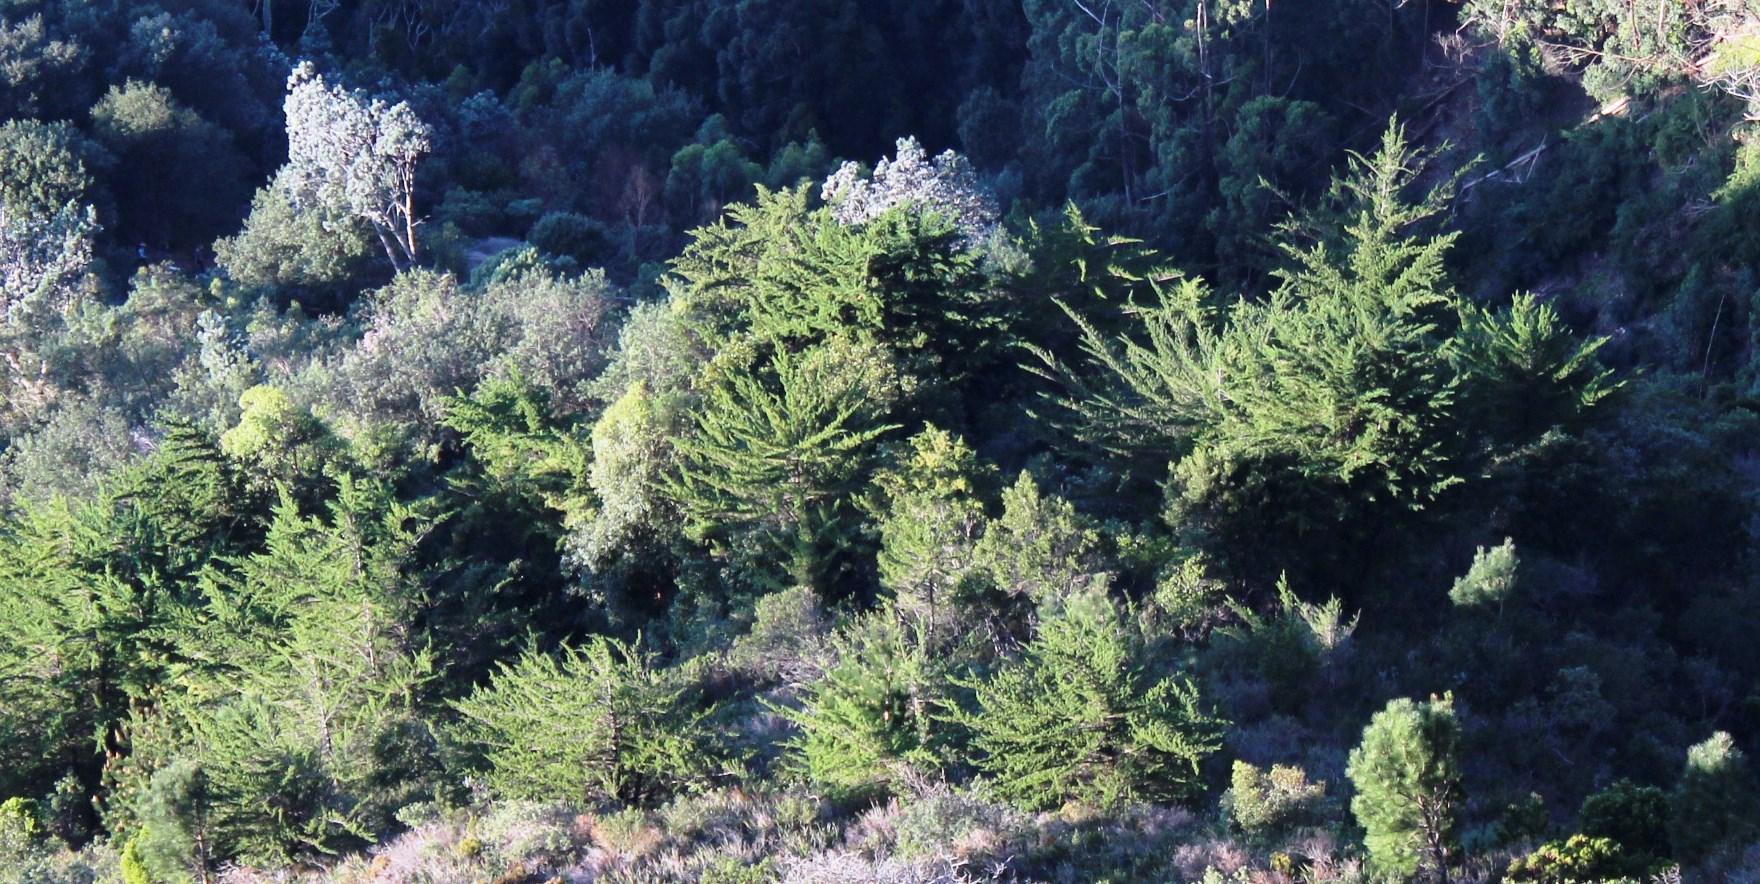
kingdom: Plantae
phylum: Tracheophyta
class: Pinopsida
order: Pinales
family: Cupressaceae
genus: Cupressus
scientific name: Cupressus macrocarpa
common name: Monterey cypress
